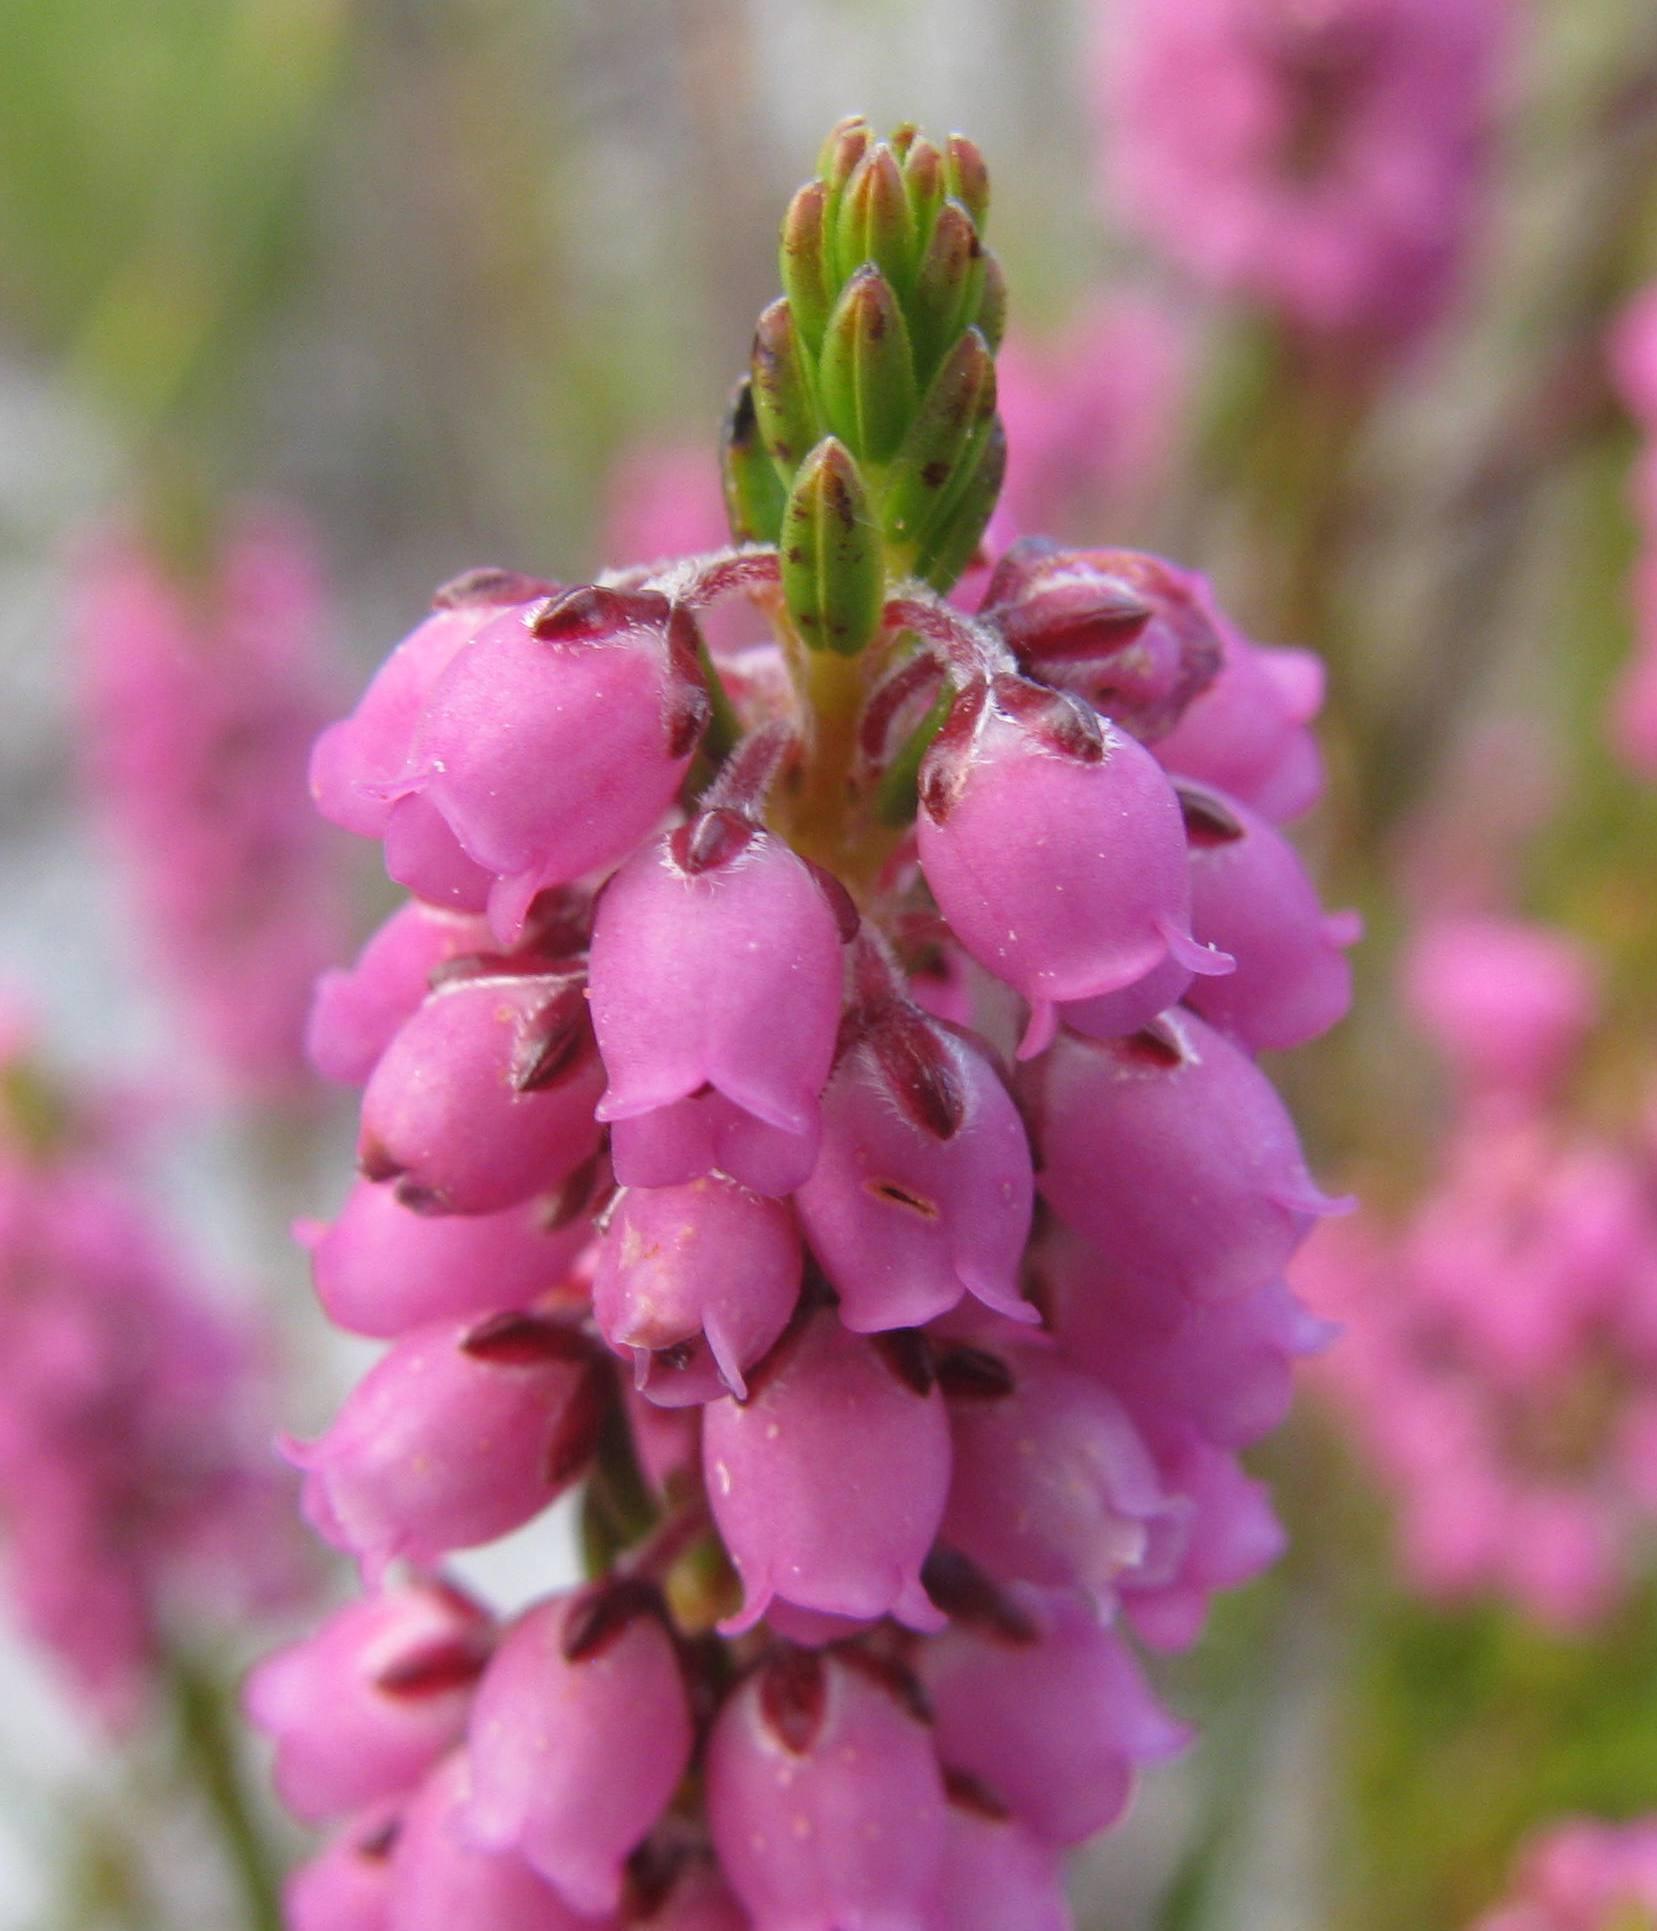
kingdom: Plantae
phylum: Tracheophyta
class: Magnoliopsida
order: Ericales
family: Ericaceae
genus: Erica
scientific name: Erica pulchella
